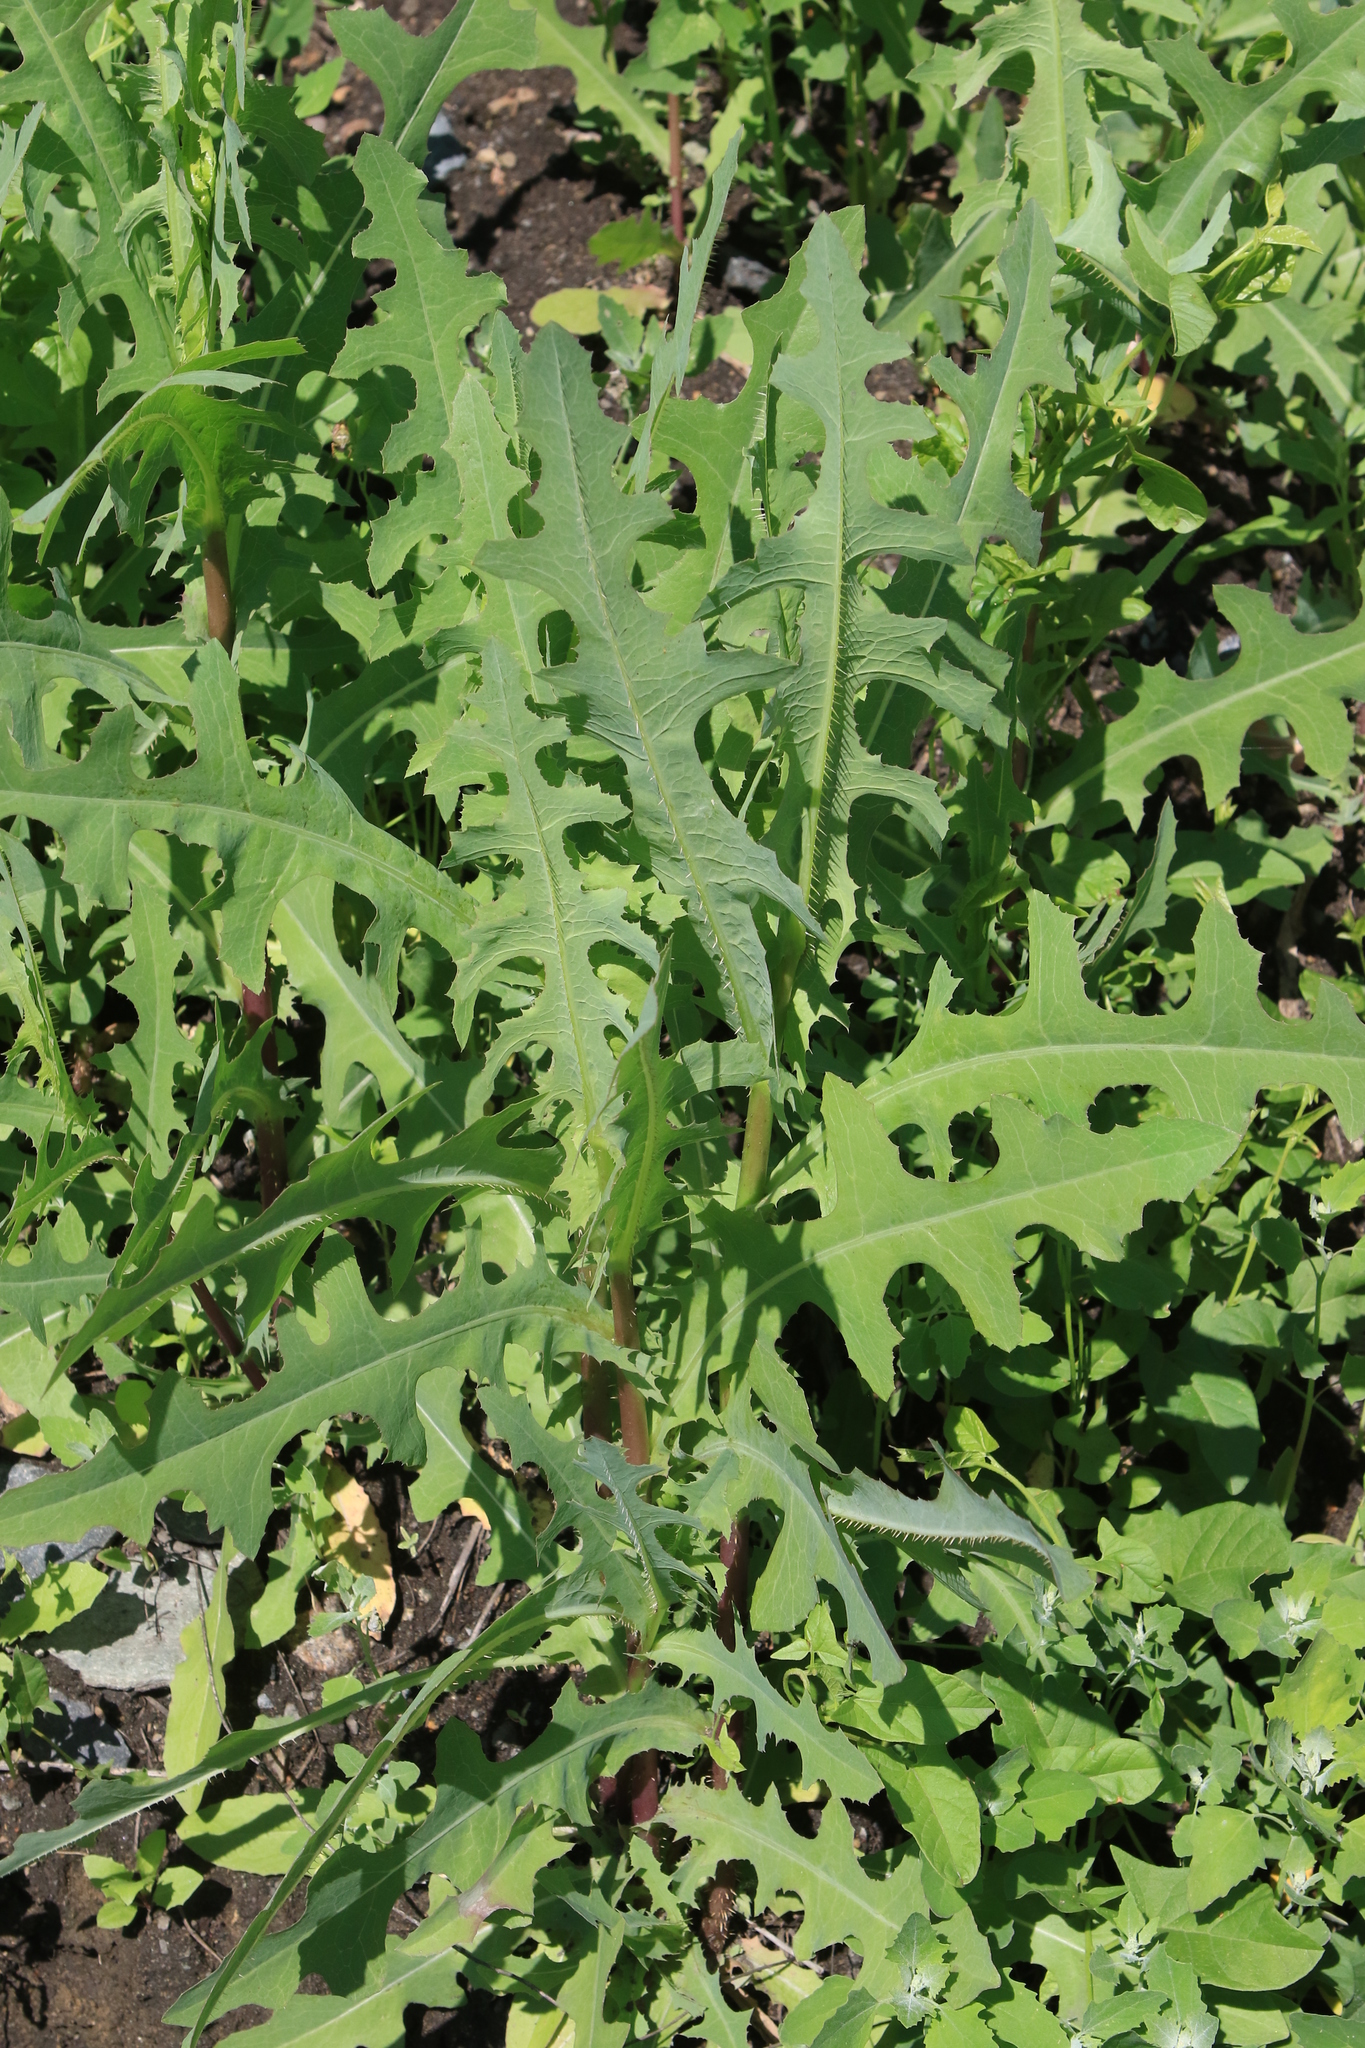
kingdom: Plantae
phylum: Tracheophyta
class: Magnoliopsida
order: Asterales
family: Asteraceae
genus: Lactuca
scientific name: Lactuca serriola
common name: Prickly lettuce
